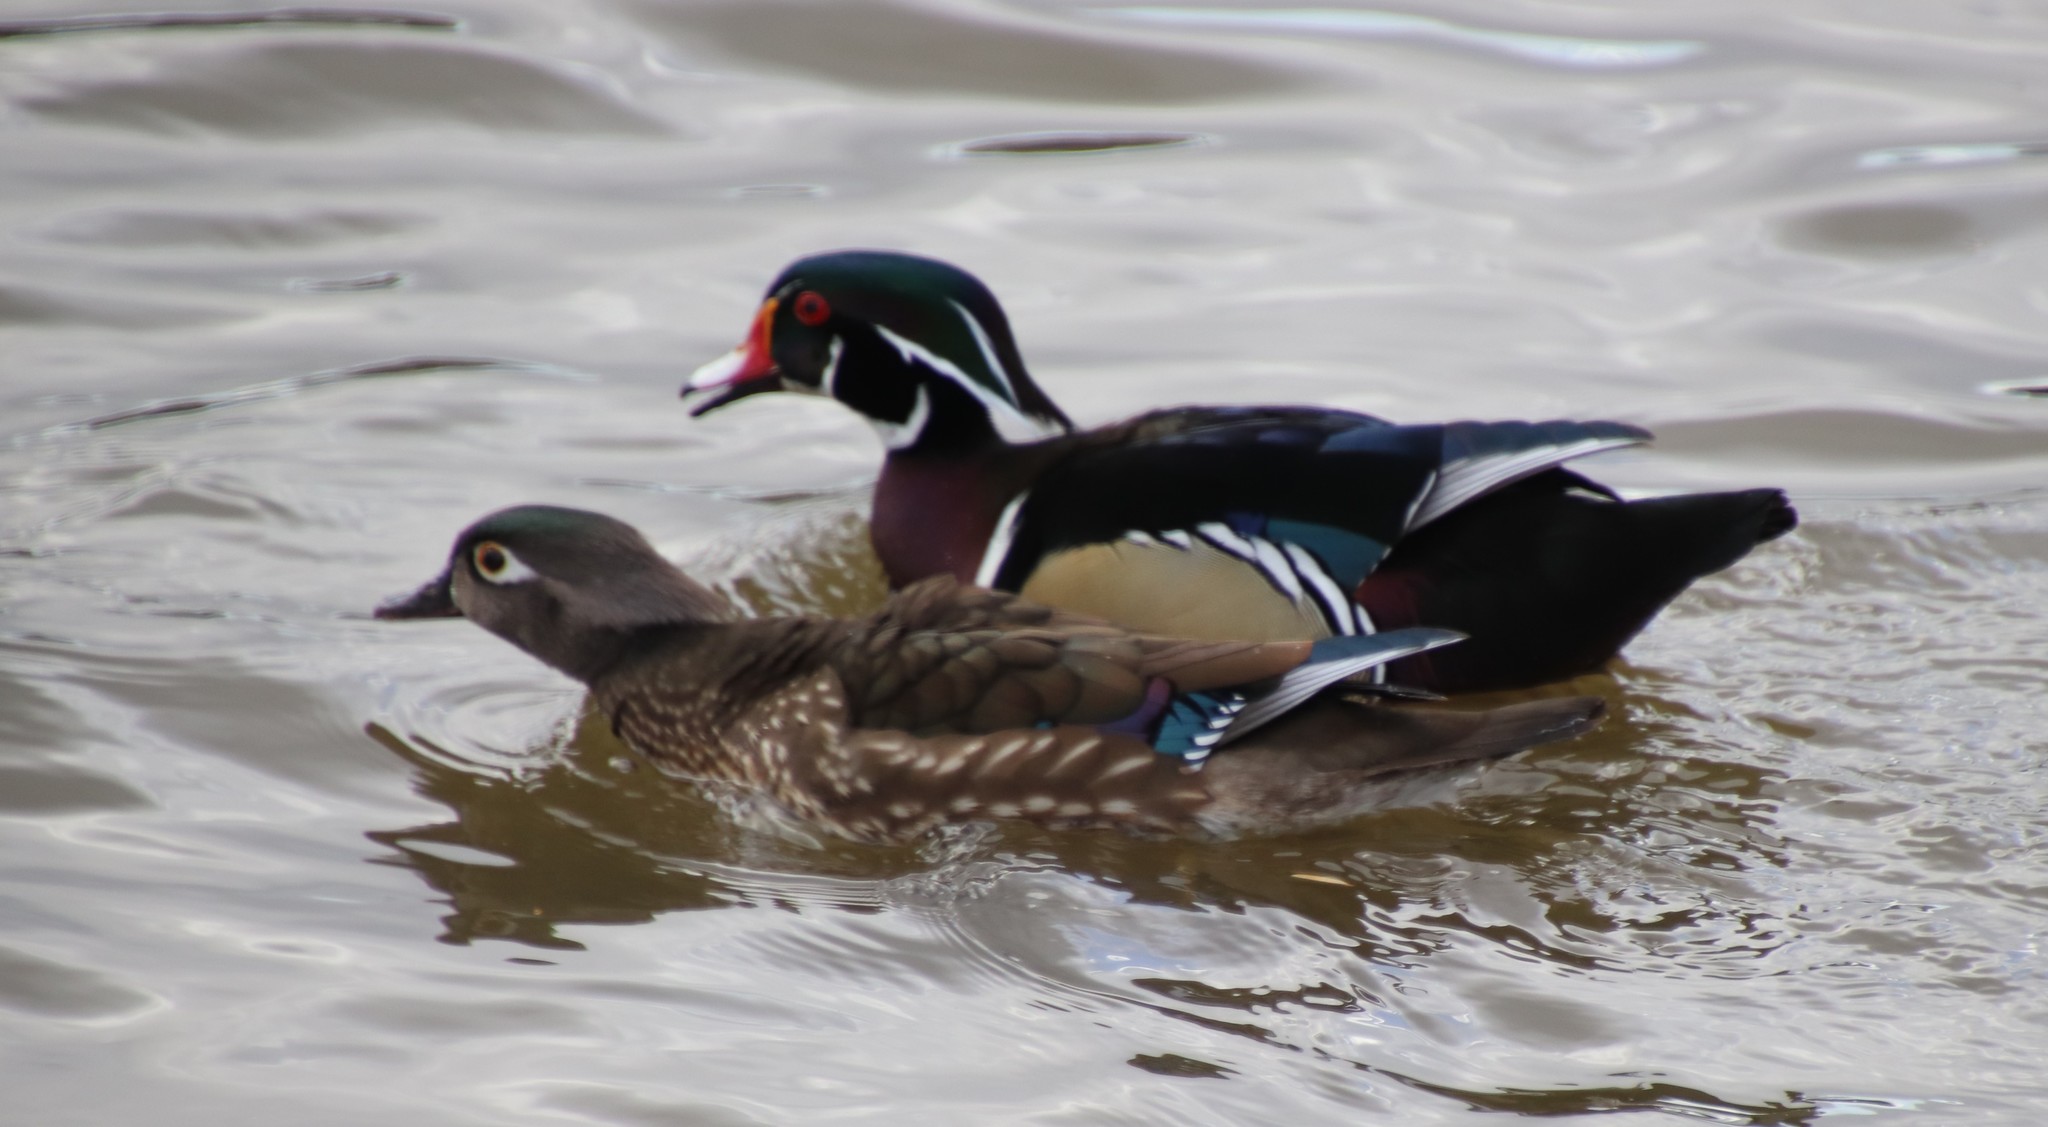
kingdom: Animalia
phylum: Chordata
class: Aves
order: Anseriformes
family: Anatidae
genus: Aix
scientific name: Aix sponsa
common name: Wood duck
